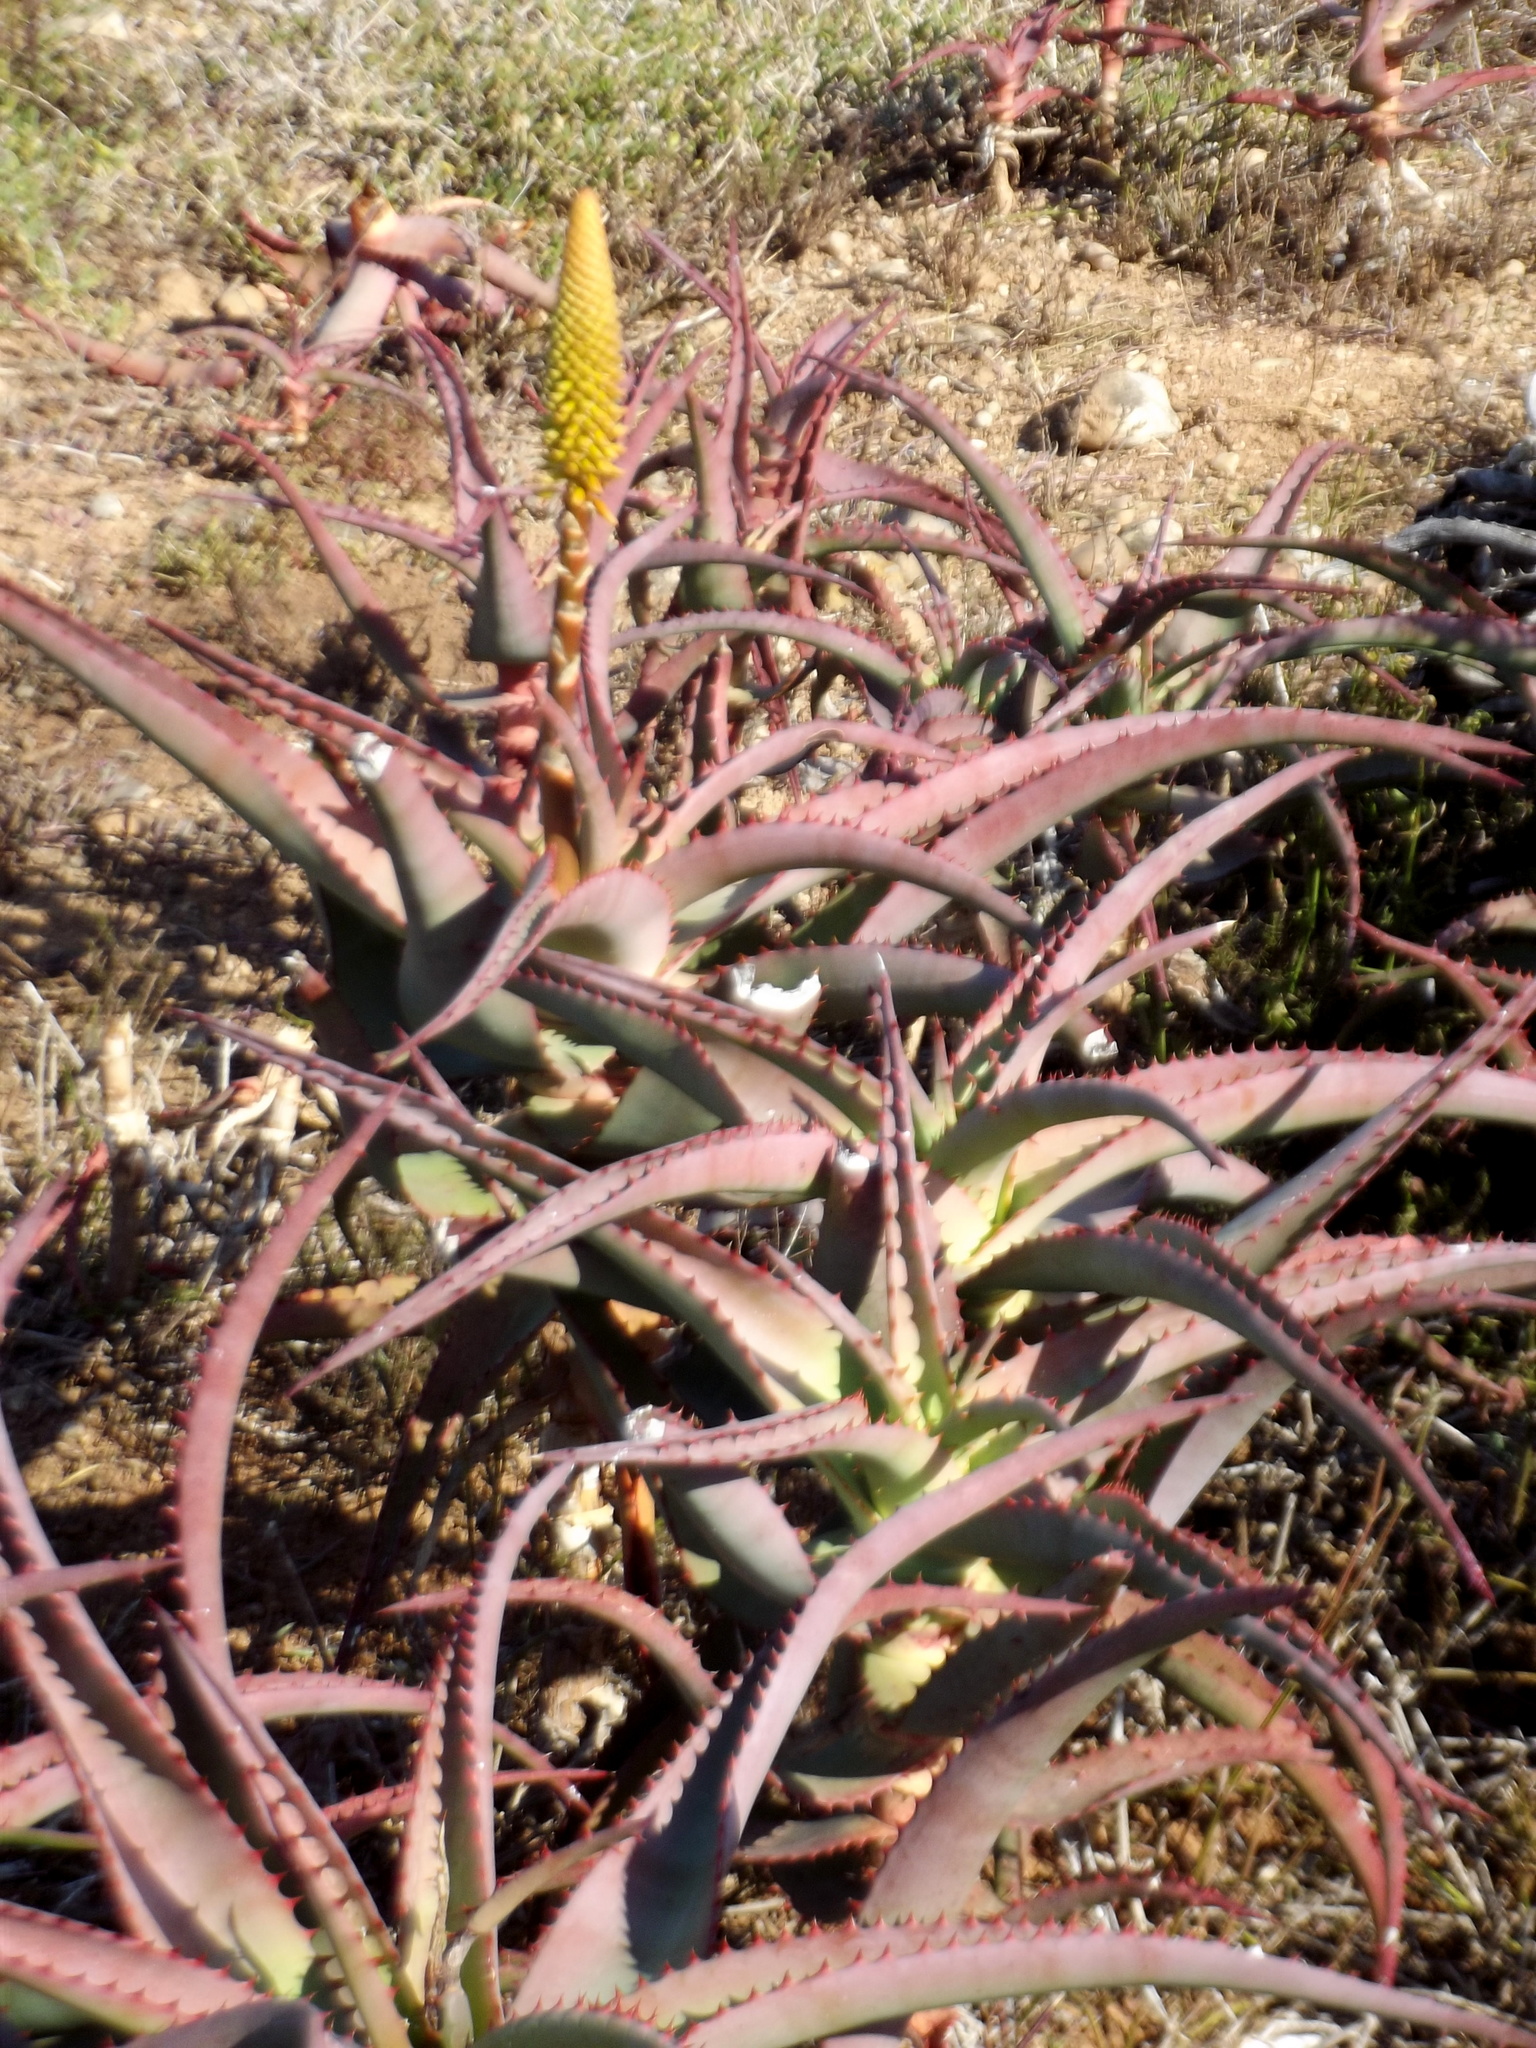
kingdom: Plantae
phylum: Tracheophyta
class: Liliopsida
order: Asparagales
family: Asphodelaceae
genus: Aloe
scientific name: Aloe africana
